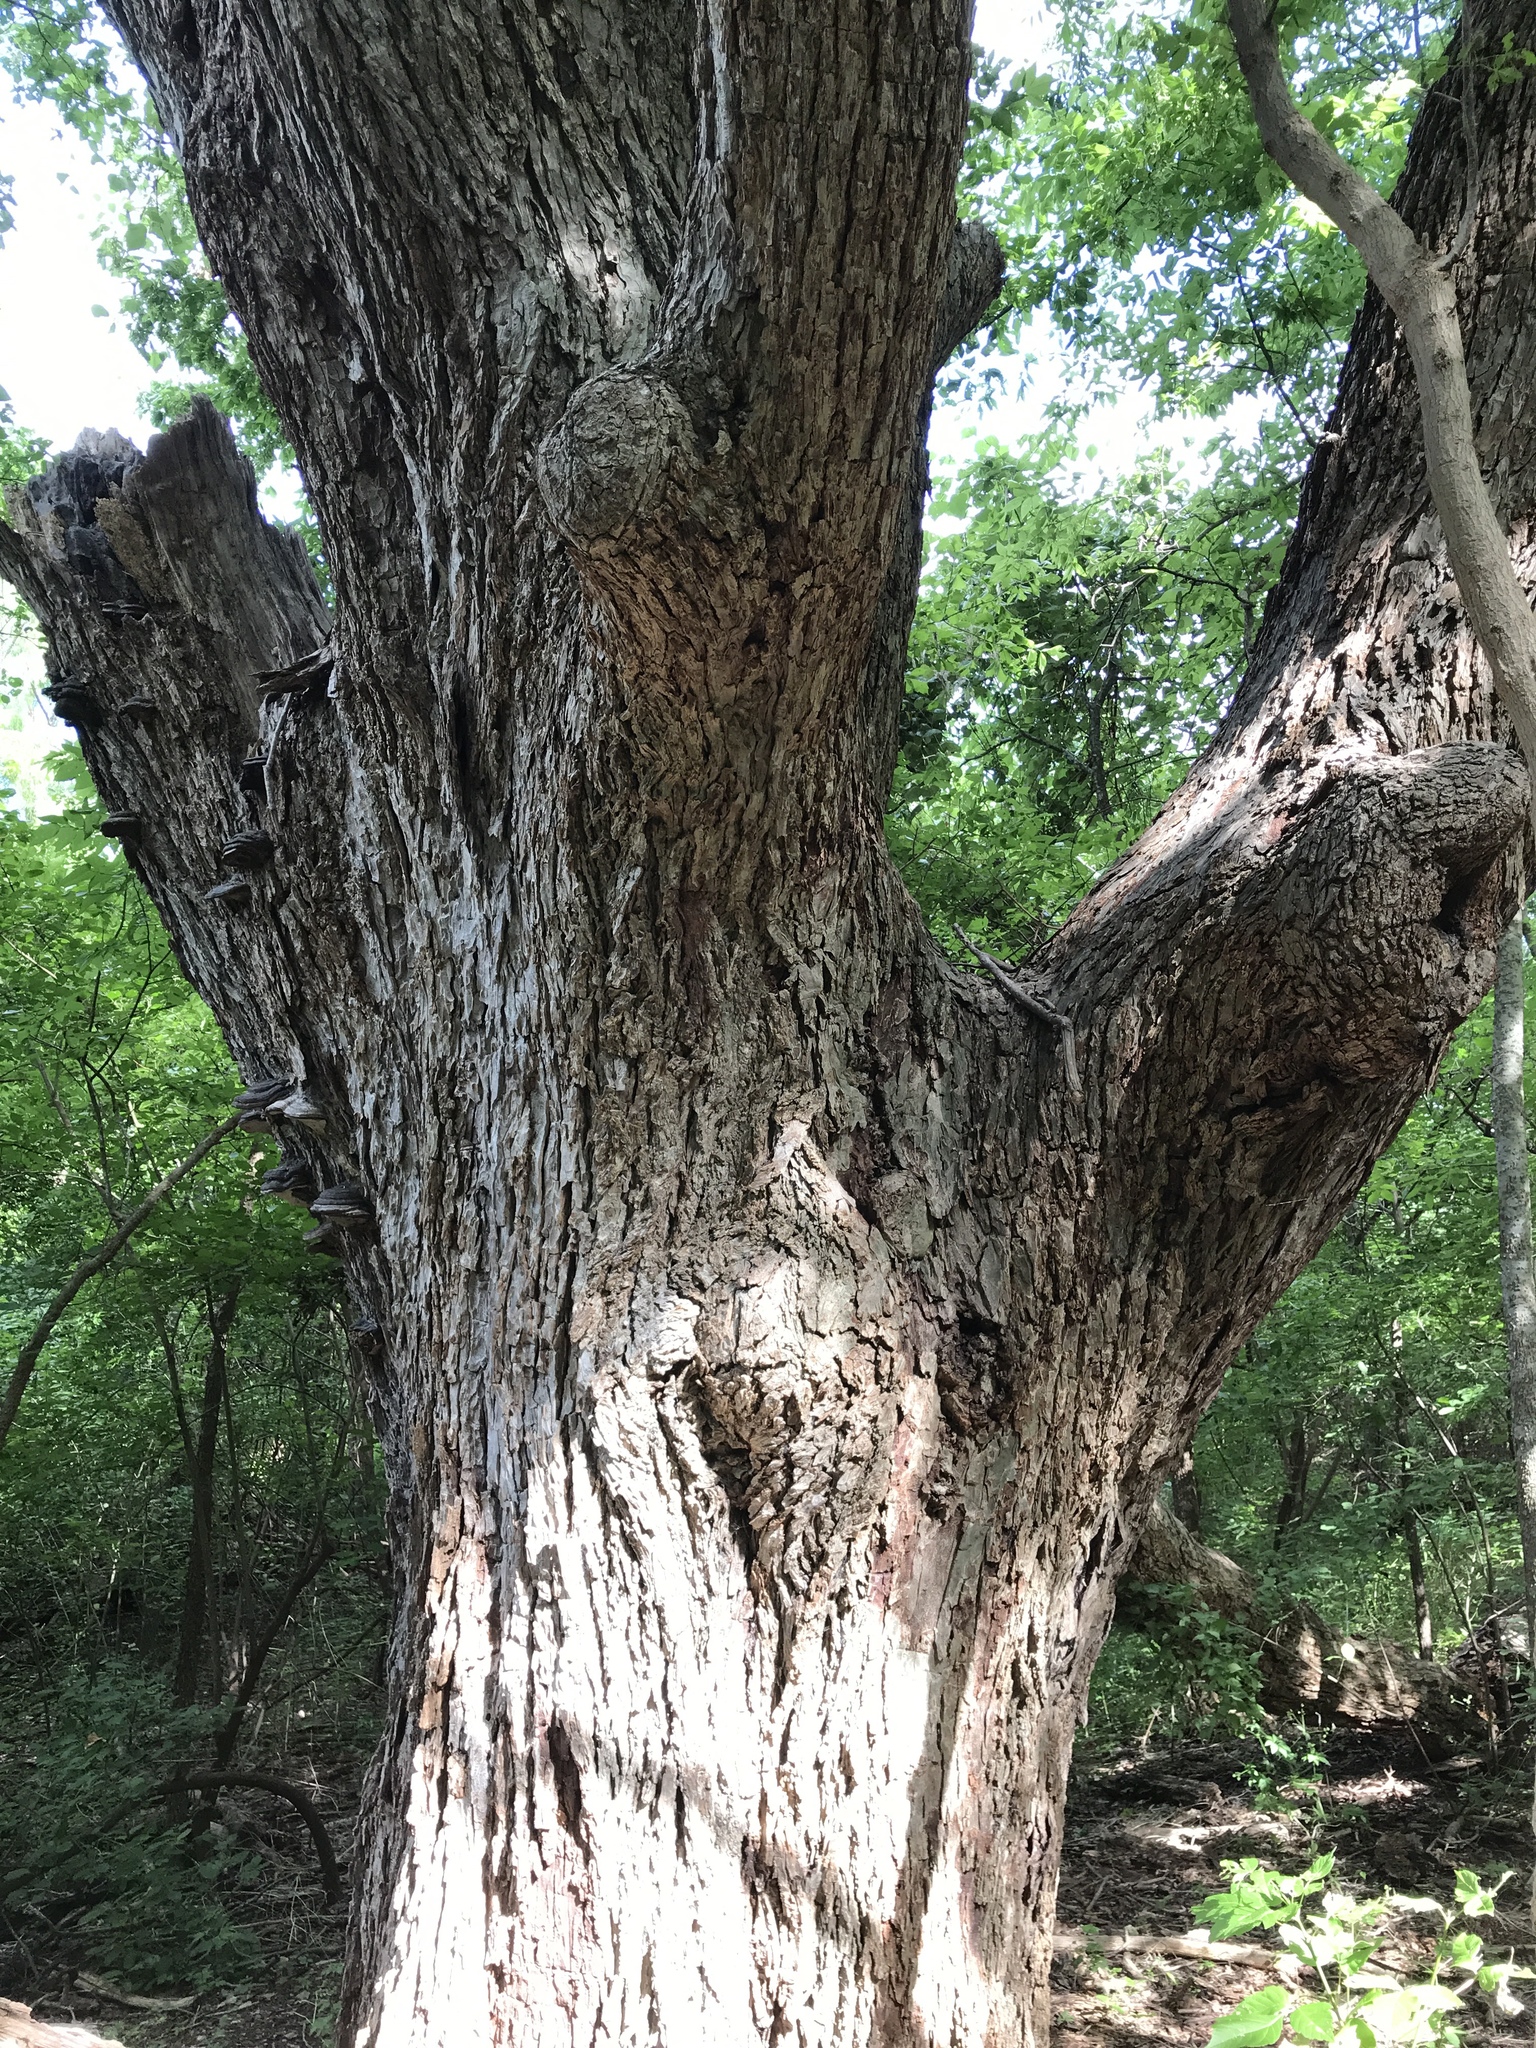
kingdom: Plantae
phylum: Tracheophyta
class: Magnoliopsida
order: Fagales
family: Juglandaceae
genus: Carya
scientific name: Carya illinoinensis
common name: Pecan
